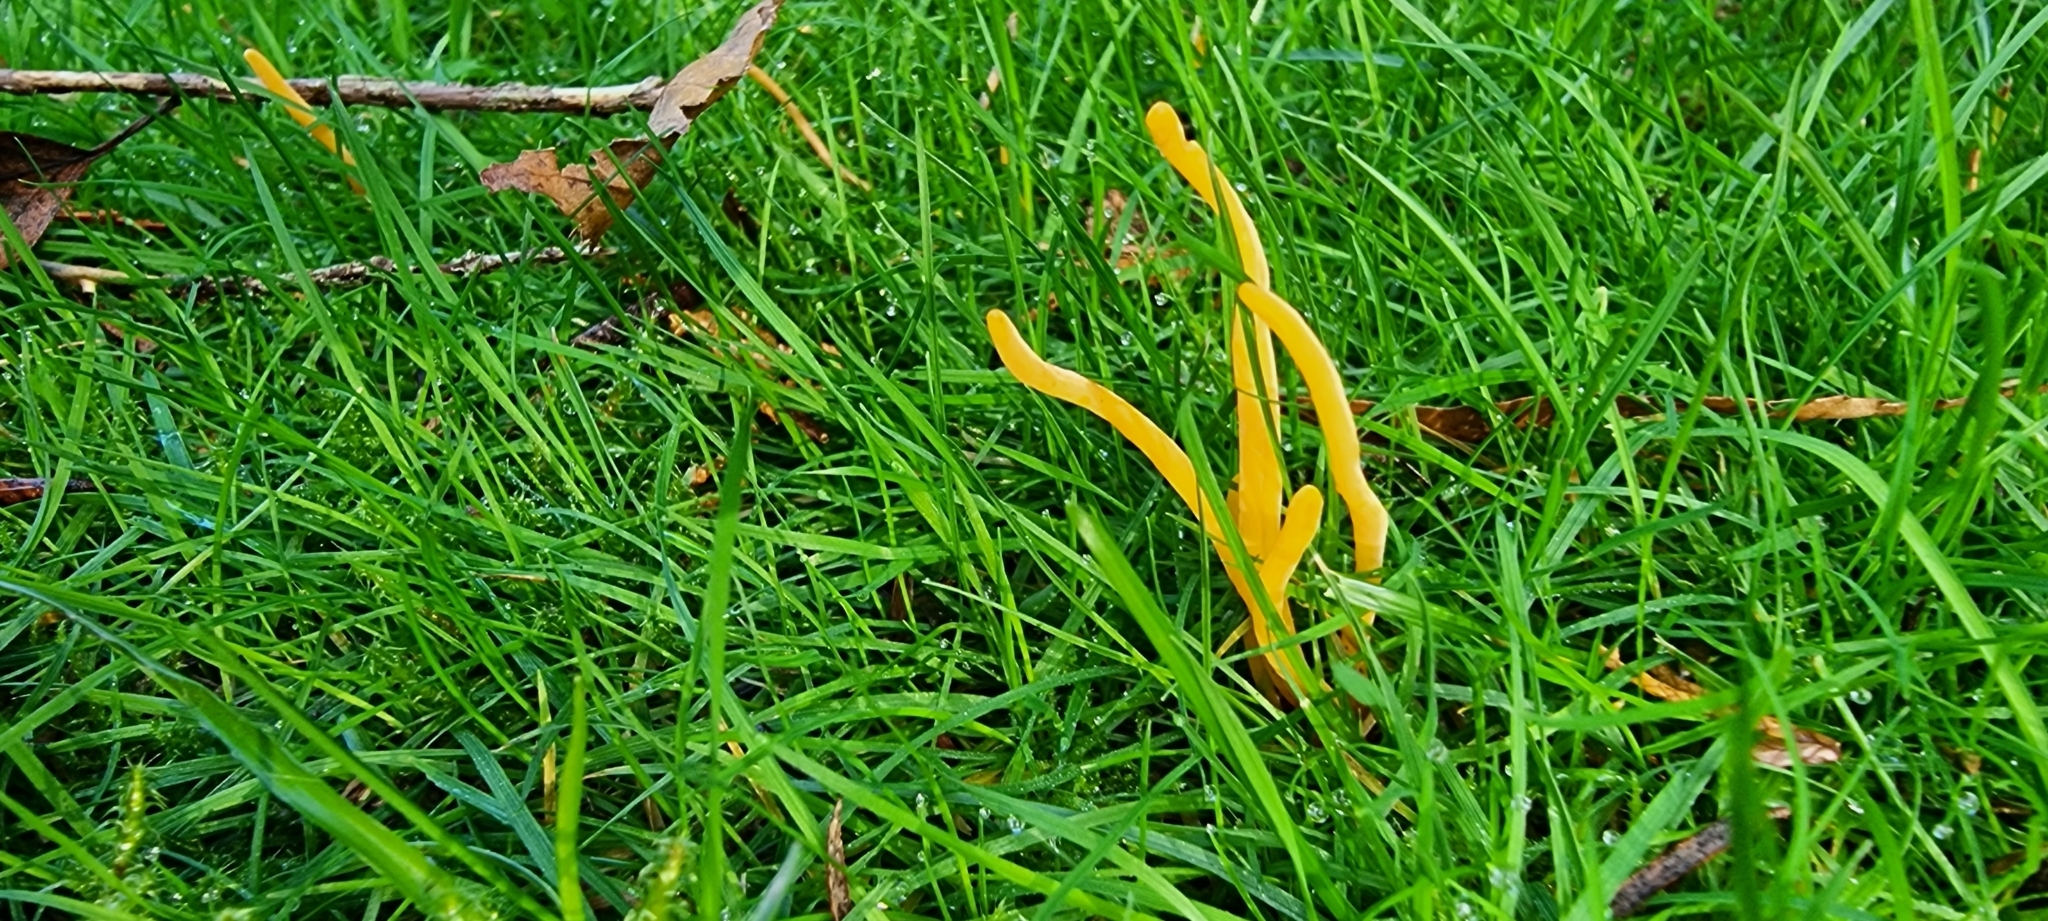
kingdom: Fungi
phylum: Basidiomycota
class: Agaricomycetes
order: Agaricales
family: Clavariaceae
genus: Clavulinopsis
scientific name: Clavulinopsis helvola
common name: Yellow club
